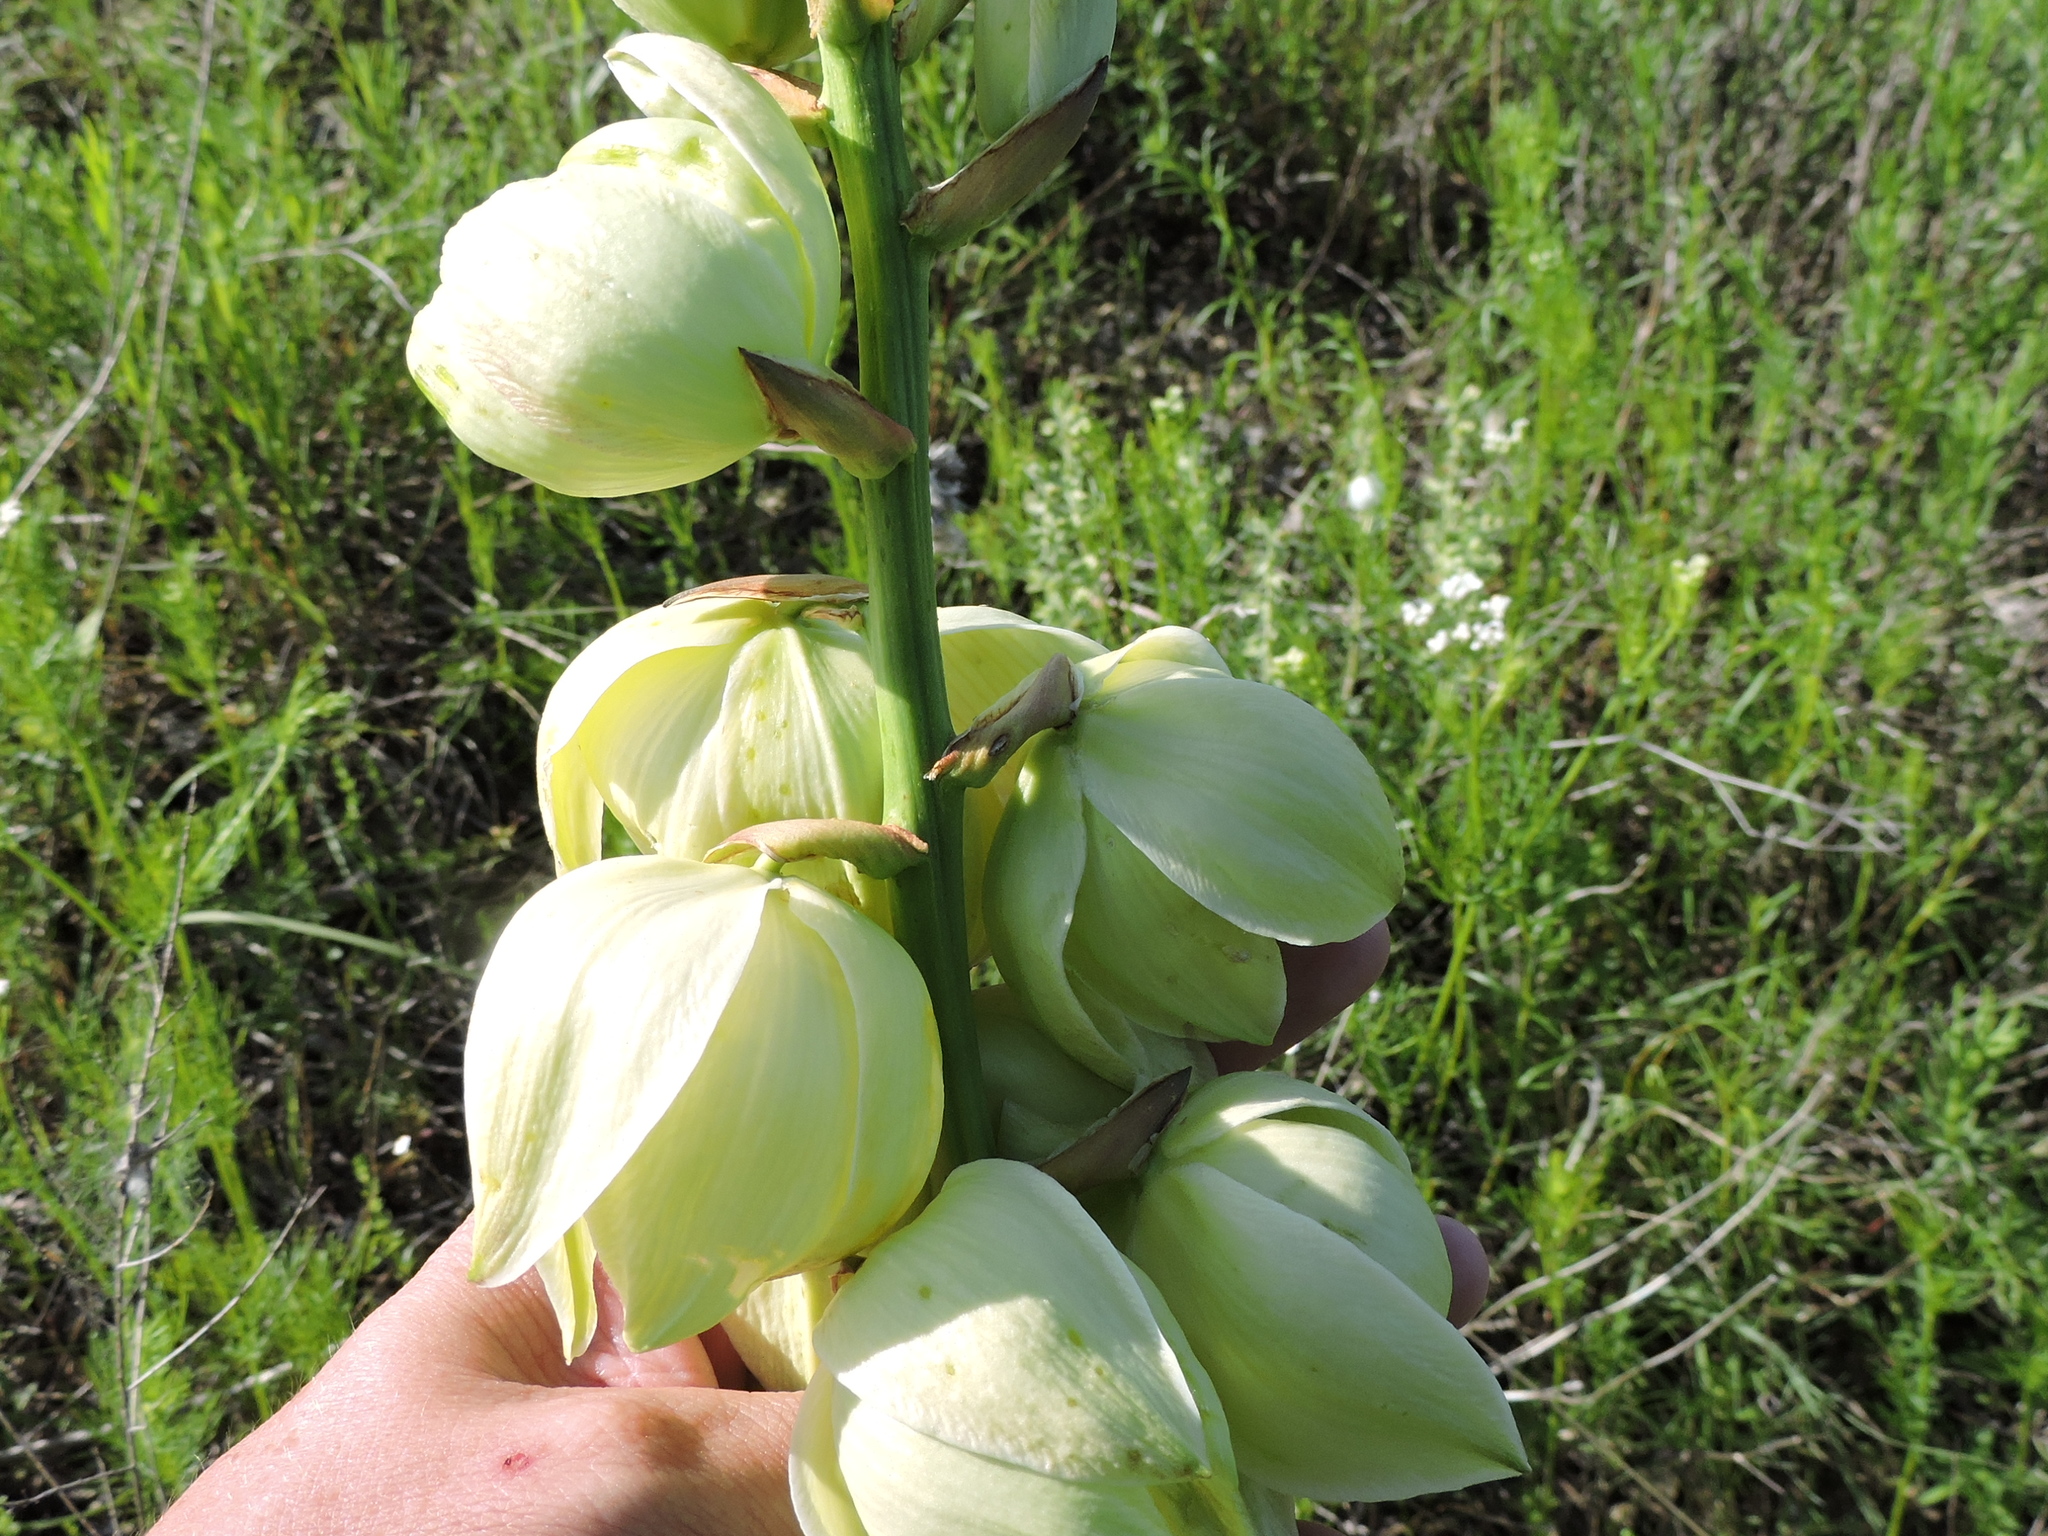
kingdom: Plantae
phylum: Tracheophyta
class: Liliopsida
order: Asparagales
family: Asparagaceae
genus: Yucca
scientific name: Yucca arkansana
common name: Arkansas yucca
